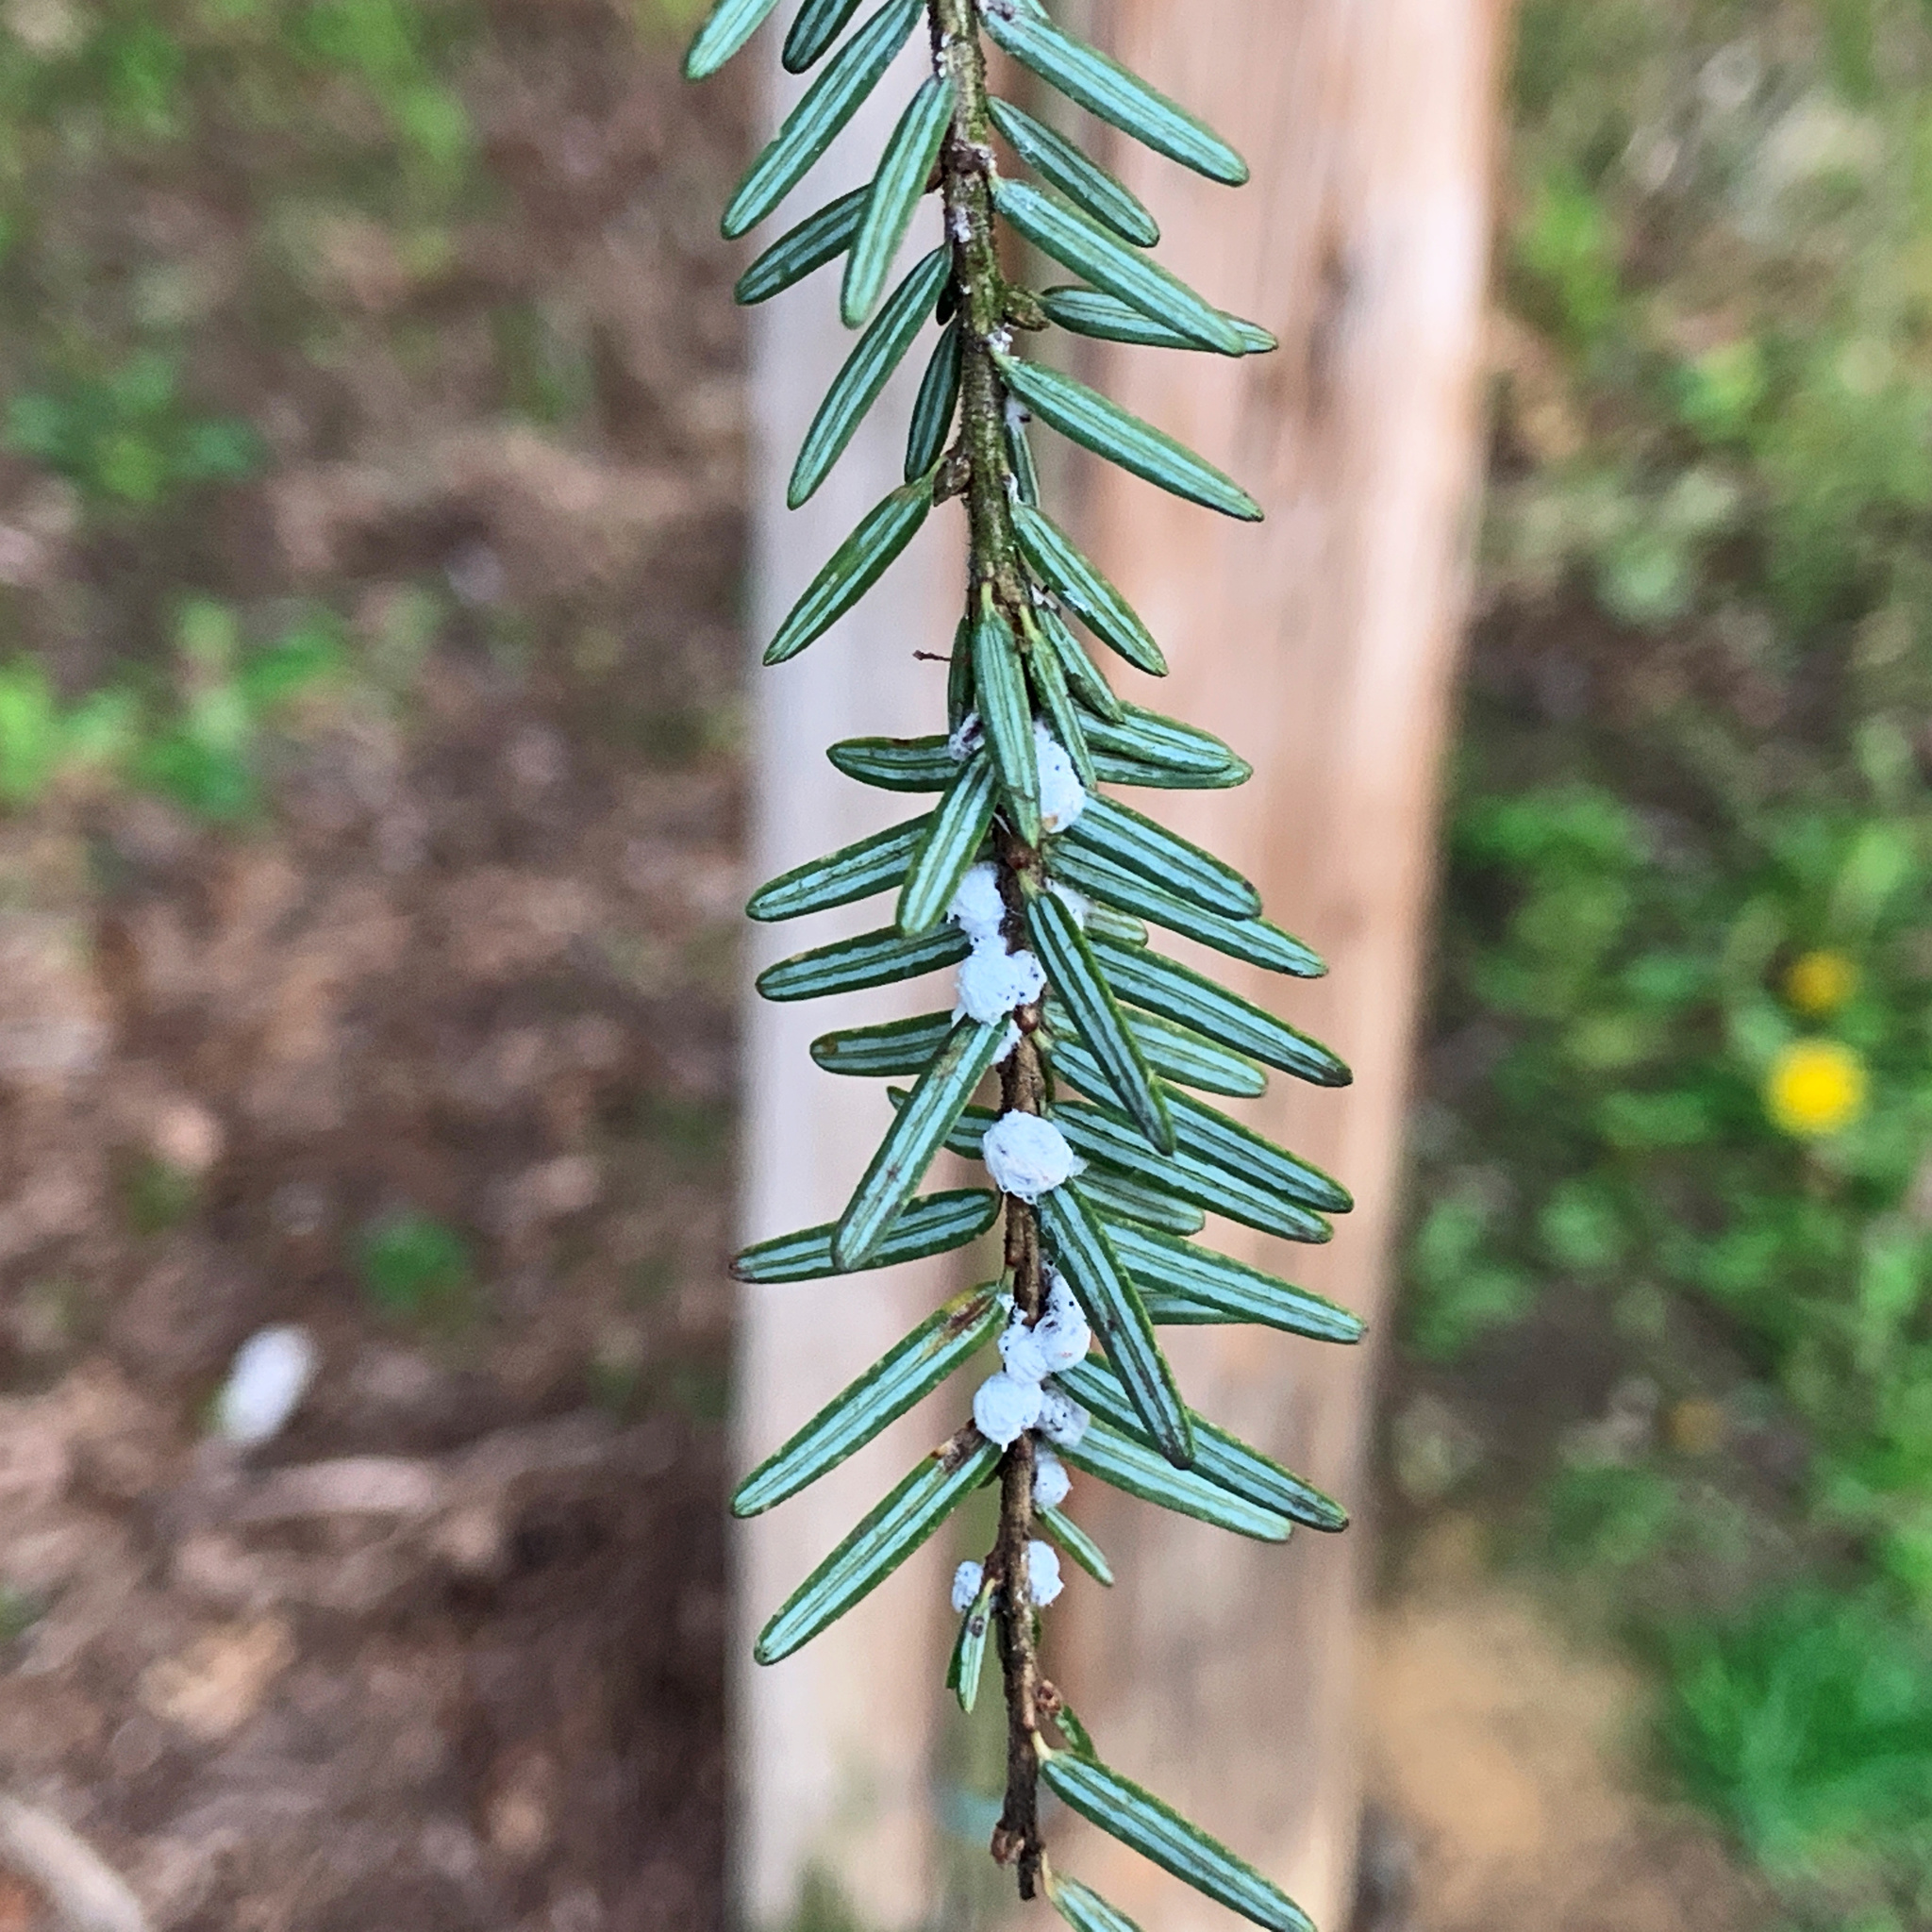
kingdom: Animalia
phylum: Arthropoda
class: Insecta
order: Hemiptera
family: Adelgidae
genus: Adelges
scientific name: Adelges tsugae
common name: Hemlock woolly adelgid
